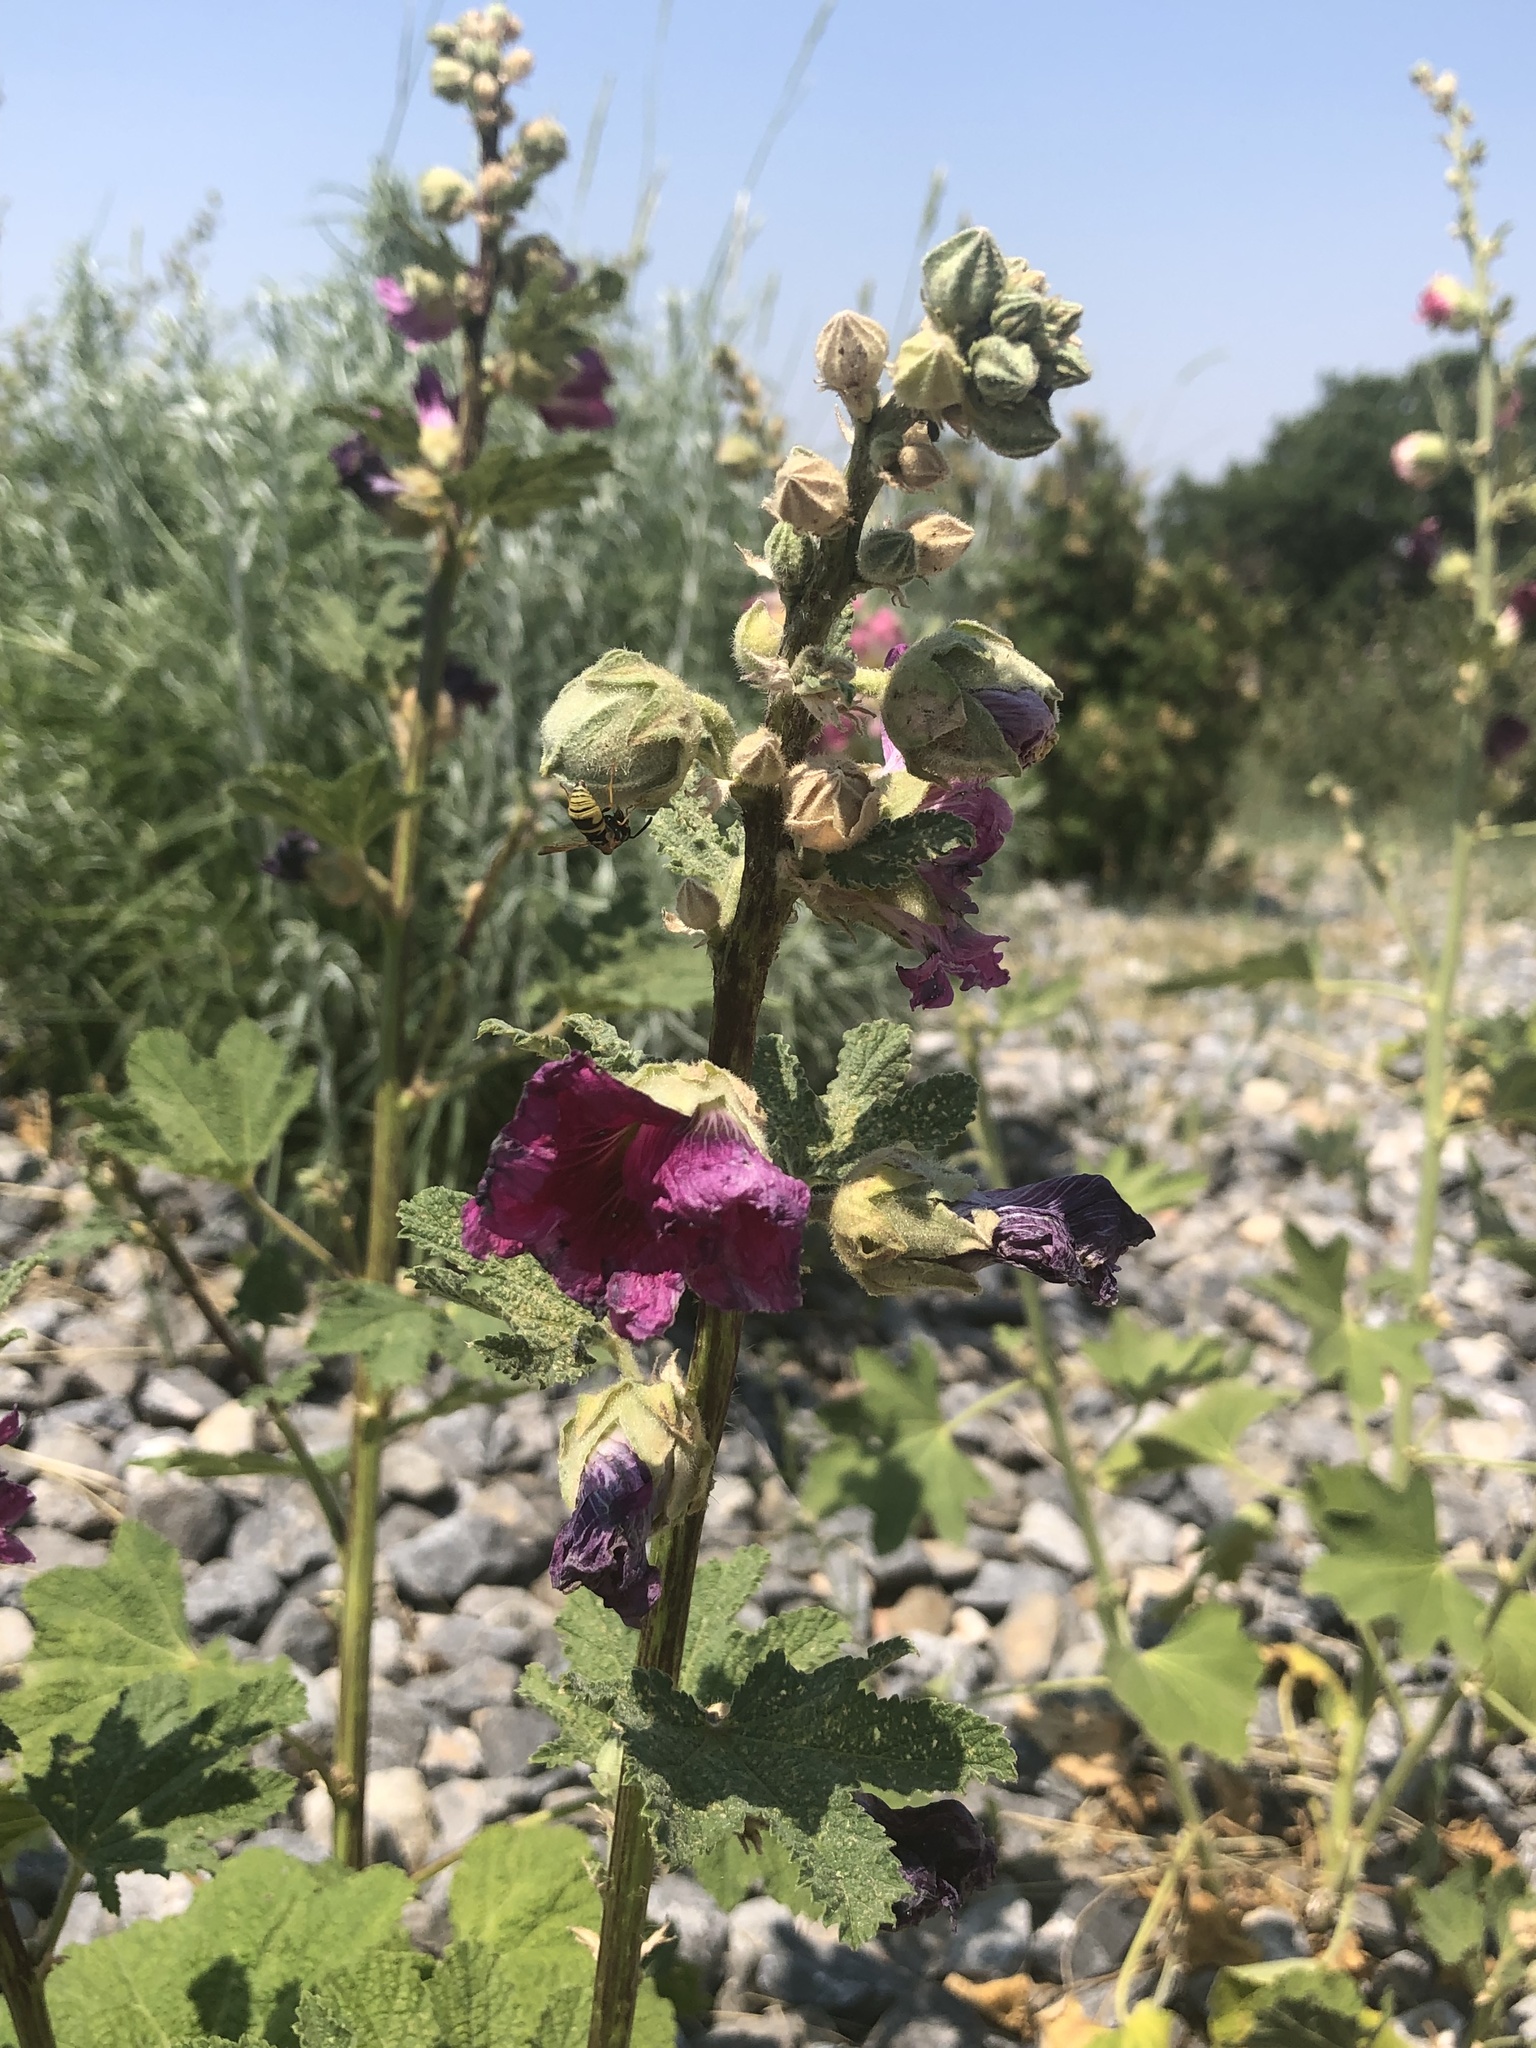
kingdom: Animalia
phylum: Arthropoda
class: Insecta
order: Hymenoptera
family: Eumenidae
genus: Euodynerus
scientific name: Euodynerus hidalgo
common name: Wasp
